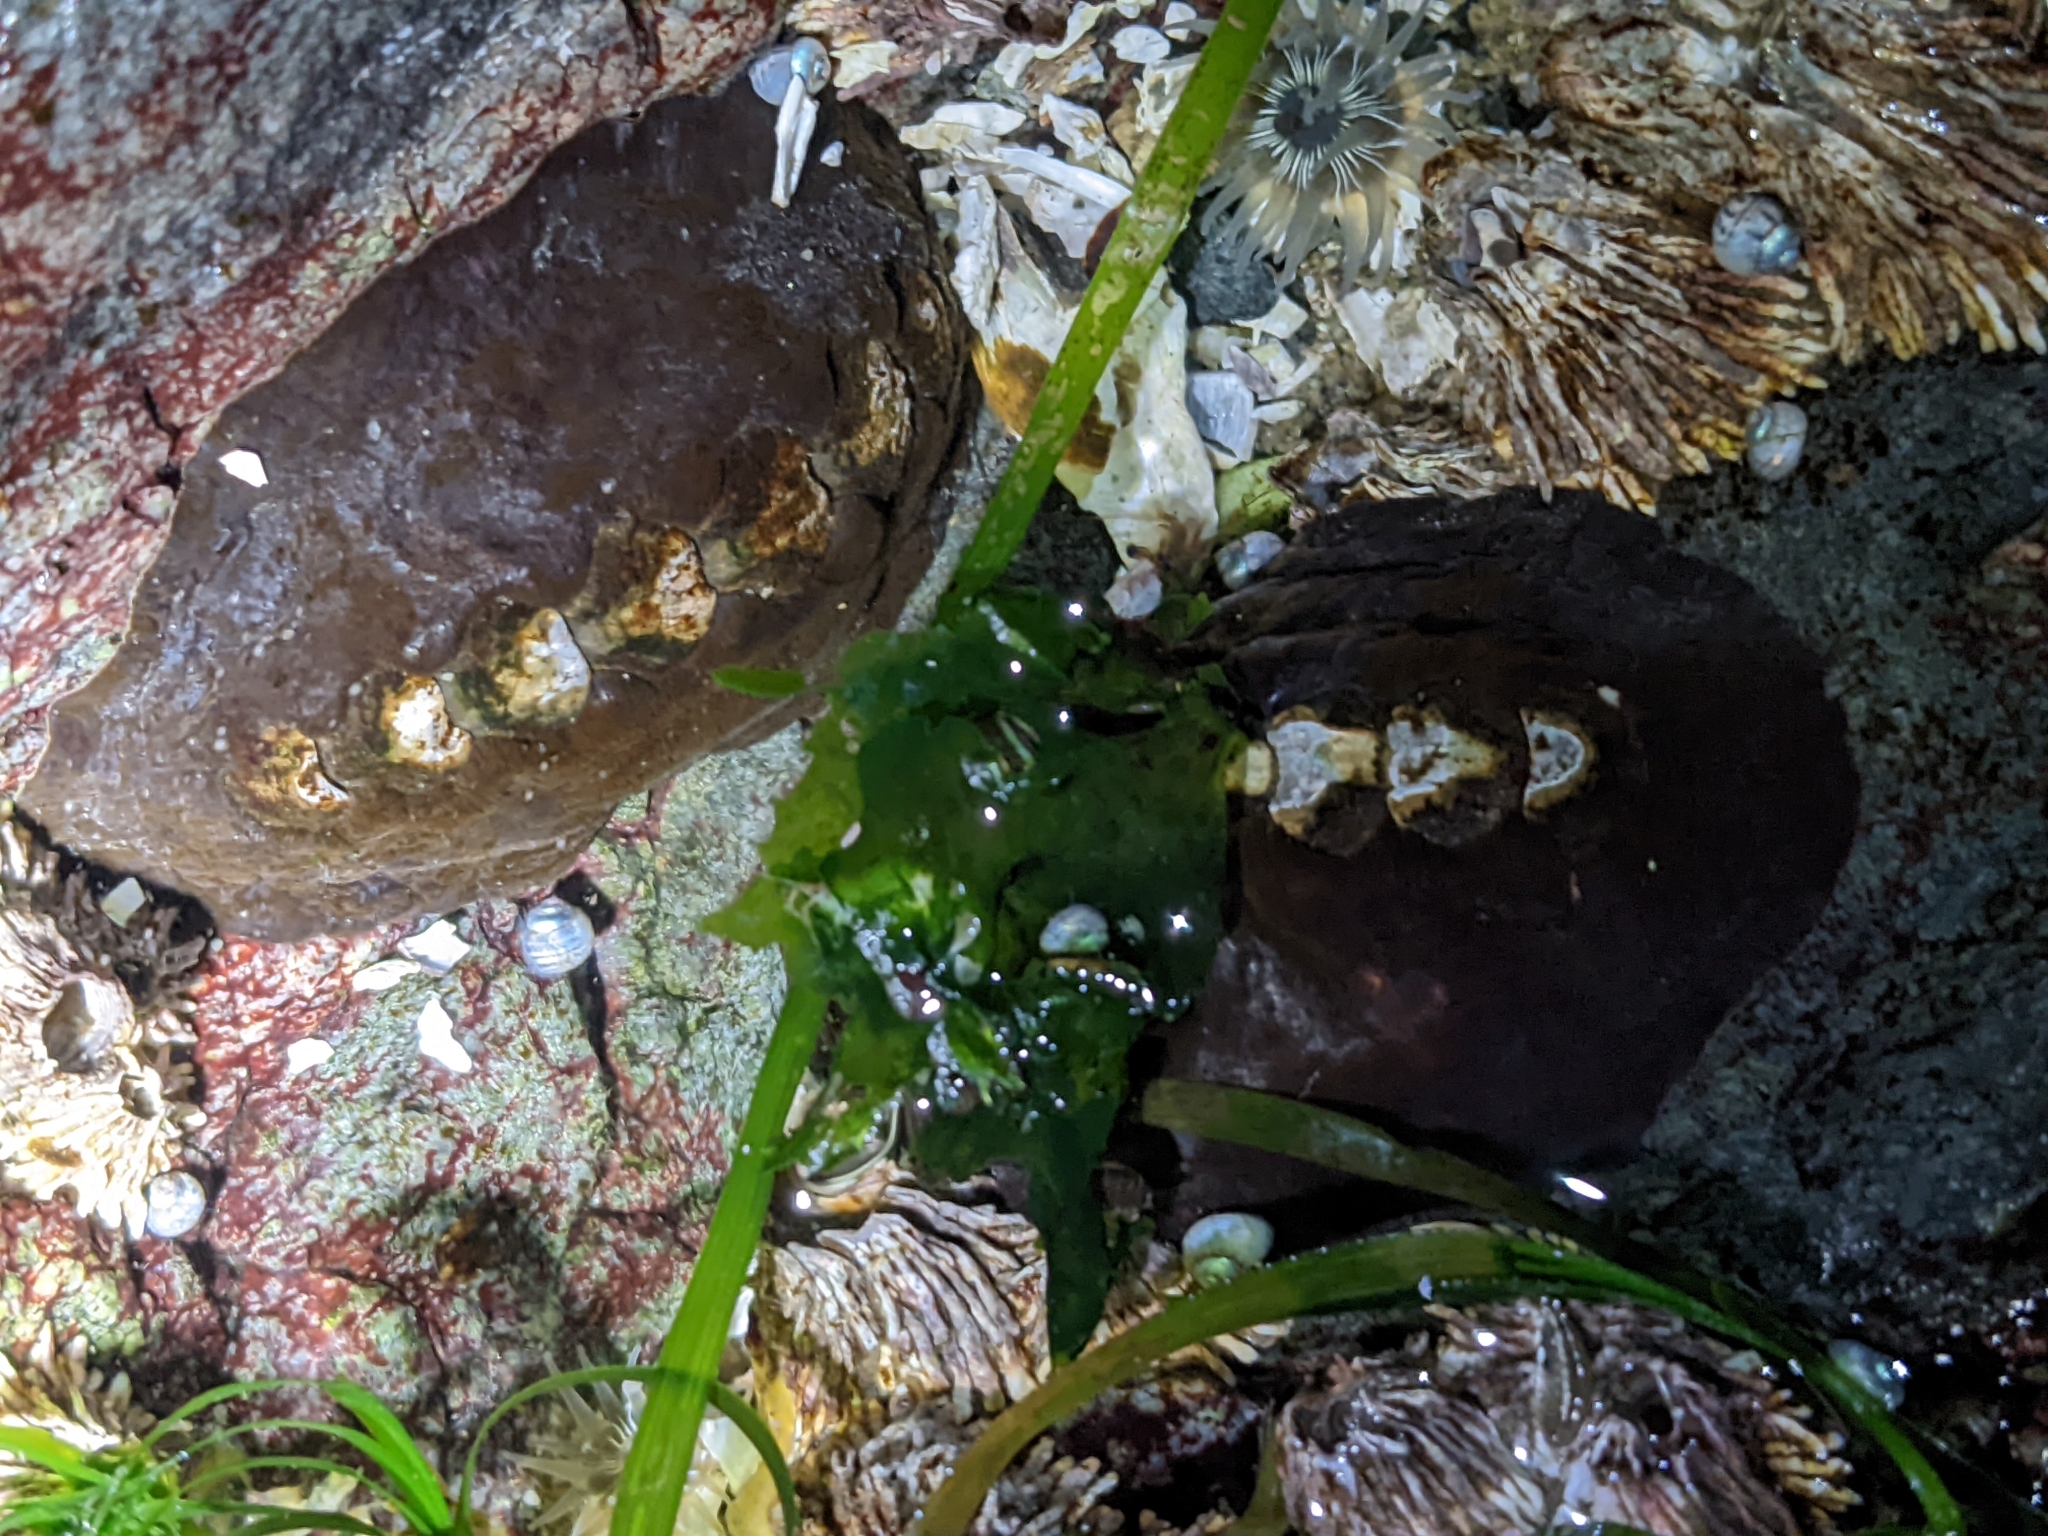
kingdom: Animalia
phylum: Mollusca
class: Polyplacophora
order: Chitonida
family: Mopaliidae
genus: Katharina
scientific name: Katharina tunicata
